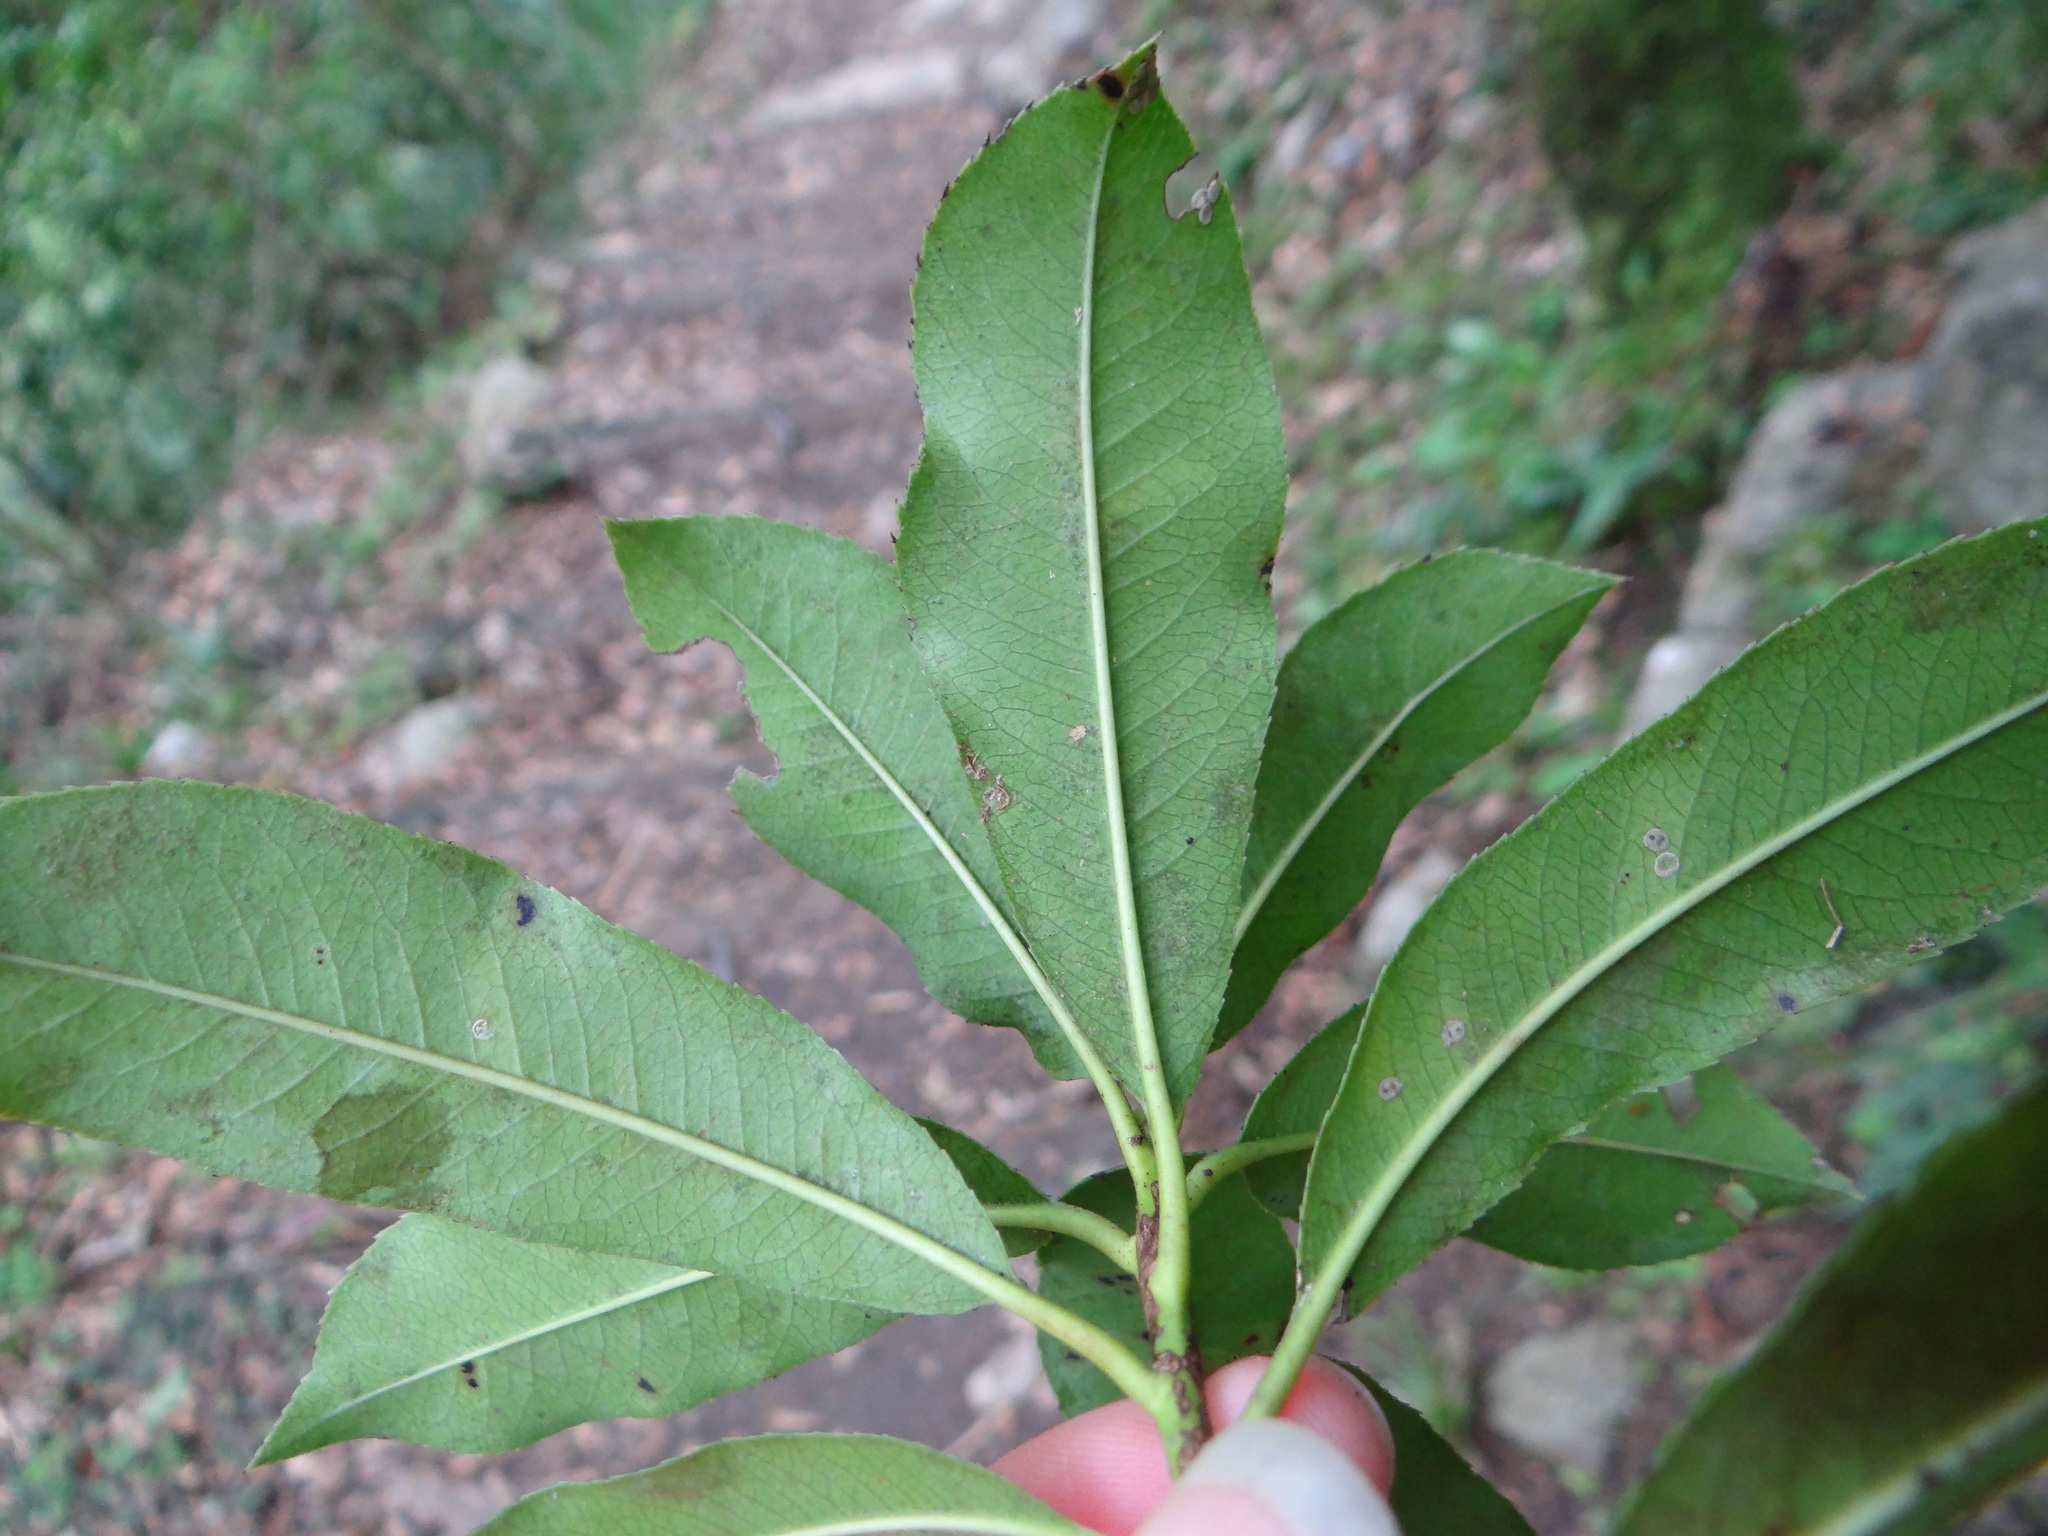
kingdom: Plantae
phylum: Tracheophyta
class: Magnoliopsida
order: Rosales
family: Rosaceae
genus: Photinia
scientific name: Photinia serratifolia
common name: Taiwanese photinia
